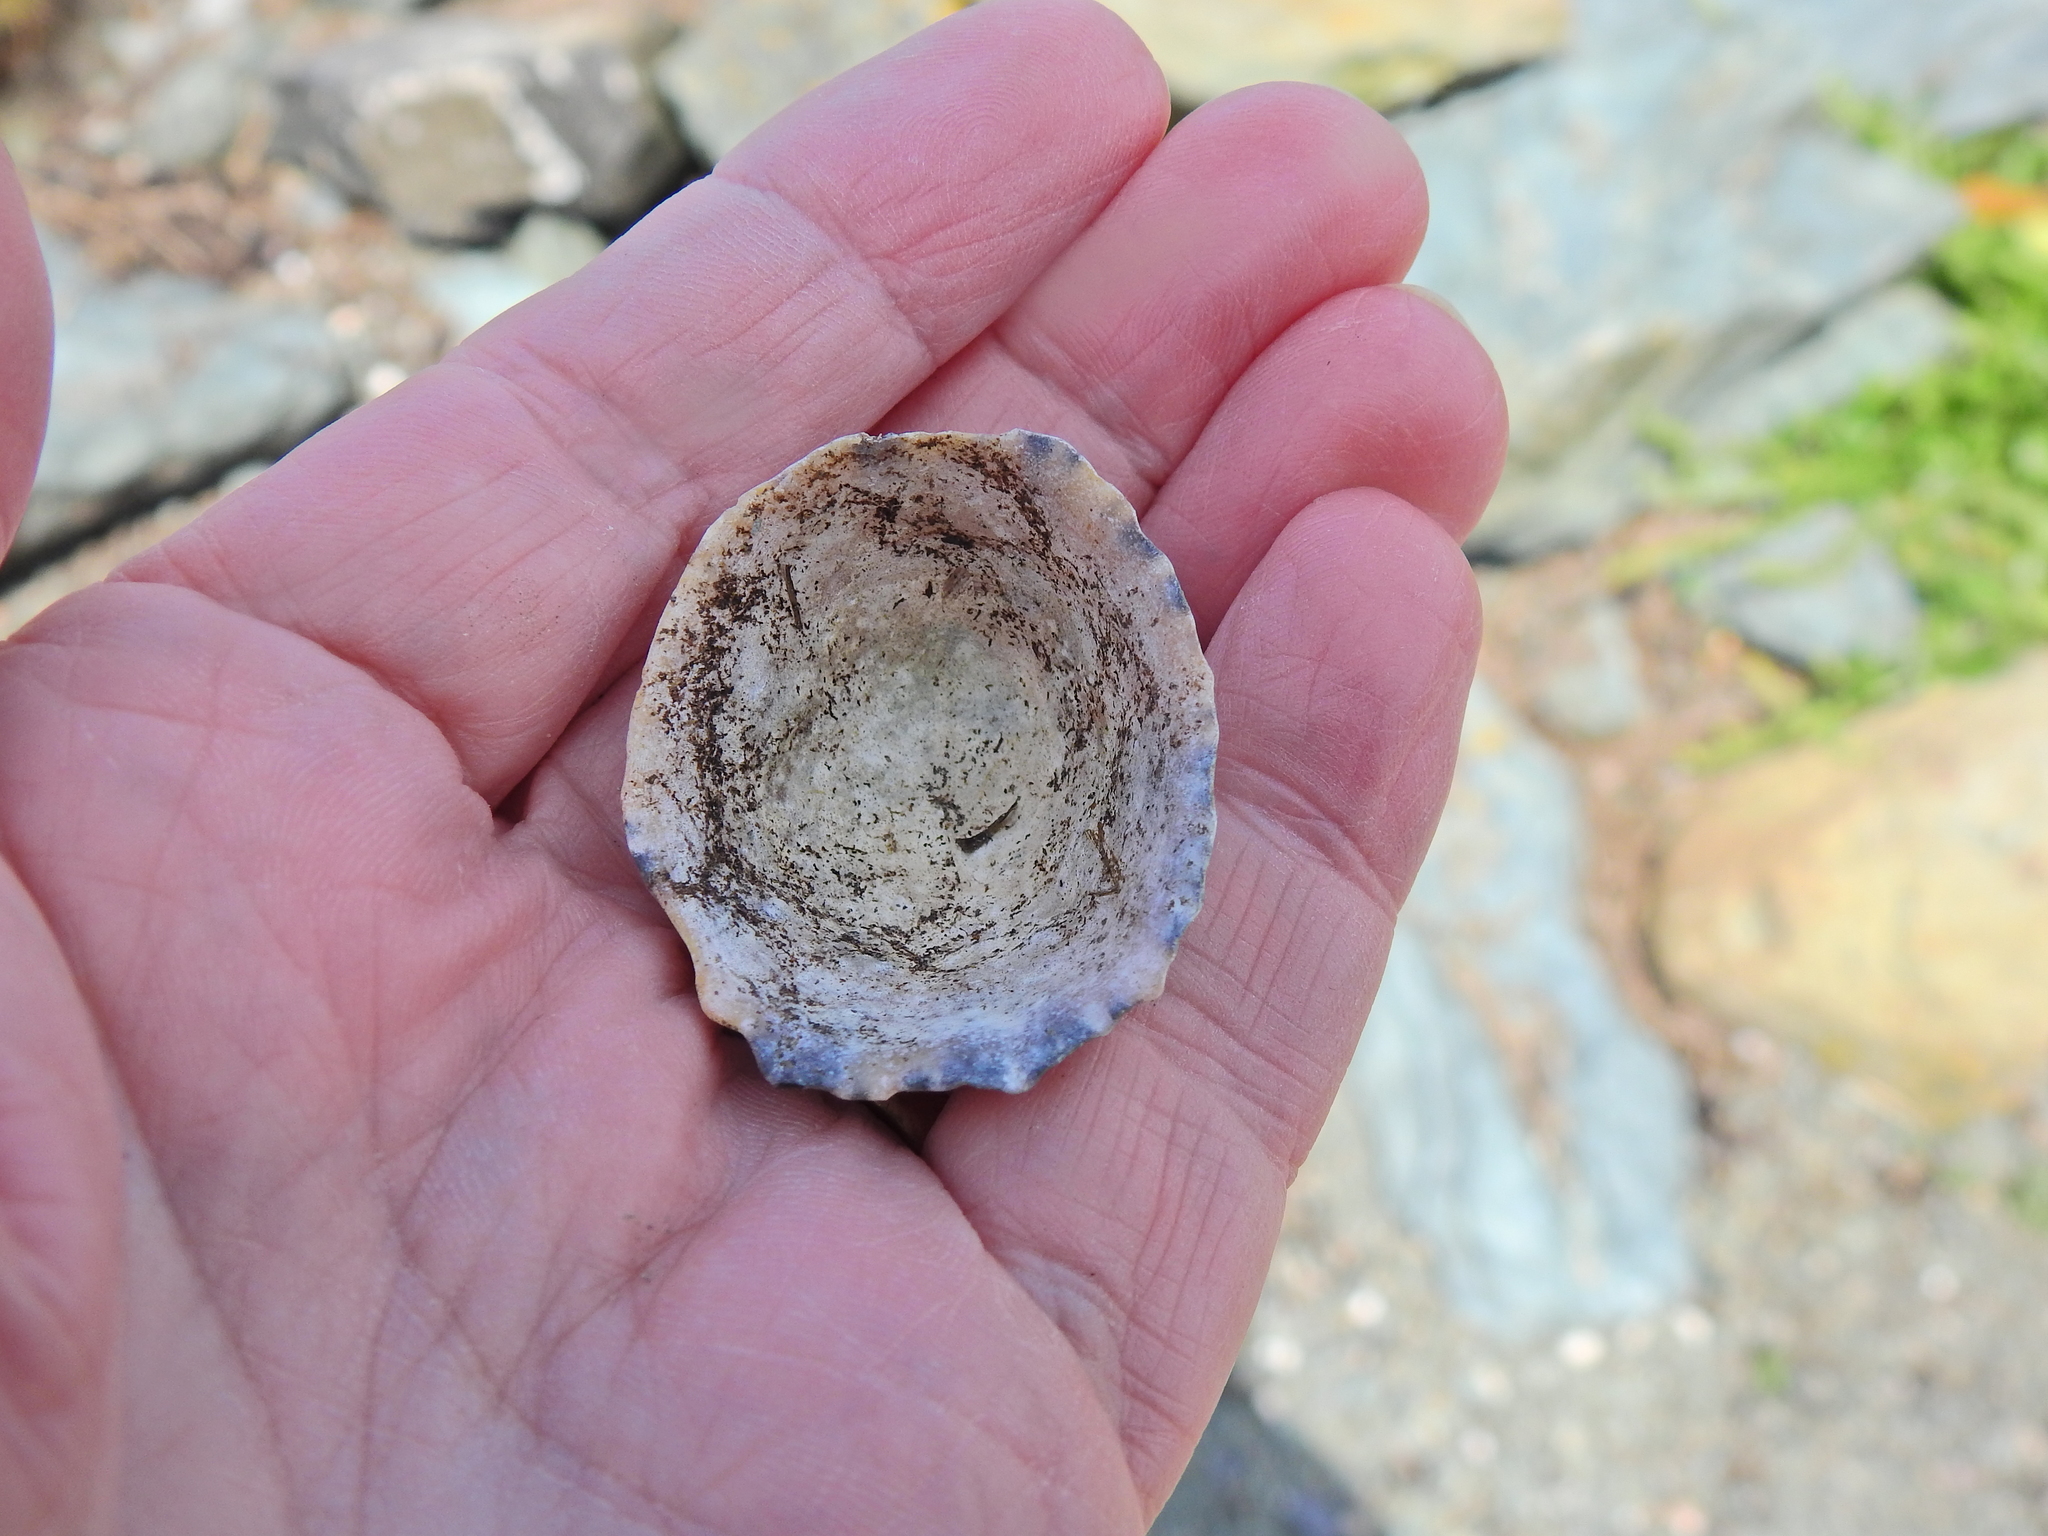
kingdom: Animalia
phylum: Mollusca
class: Gastropoda
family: Patellidae
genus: Patella
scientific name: Patella vulgata
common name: Common limpet
